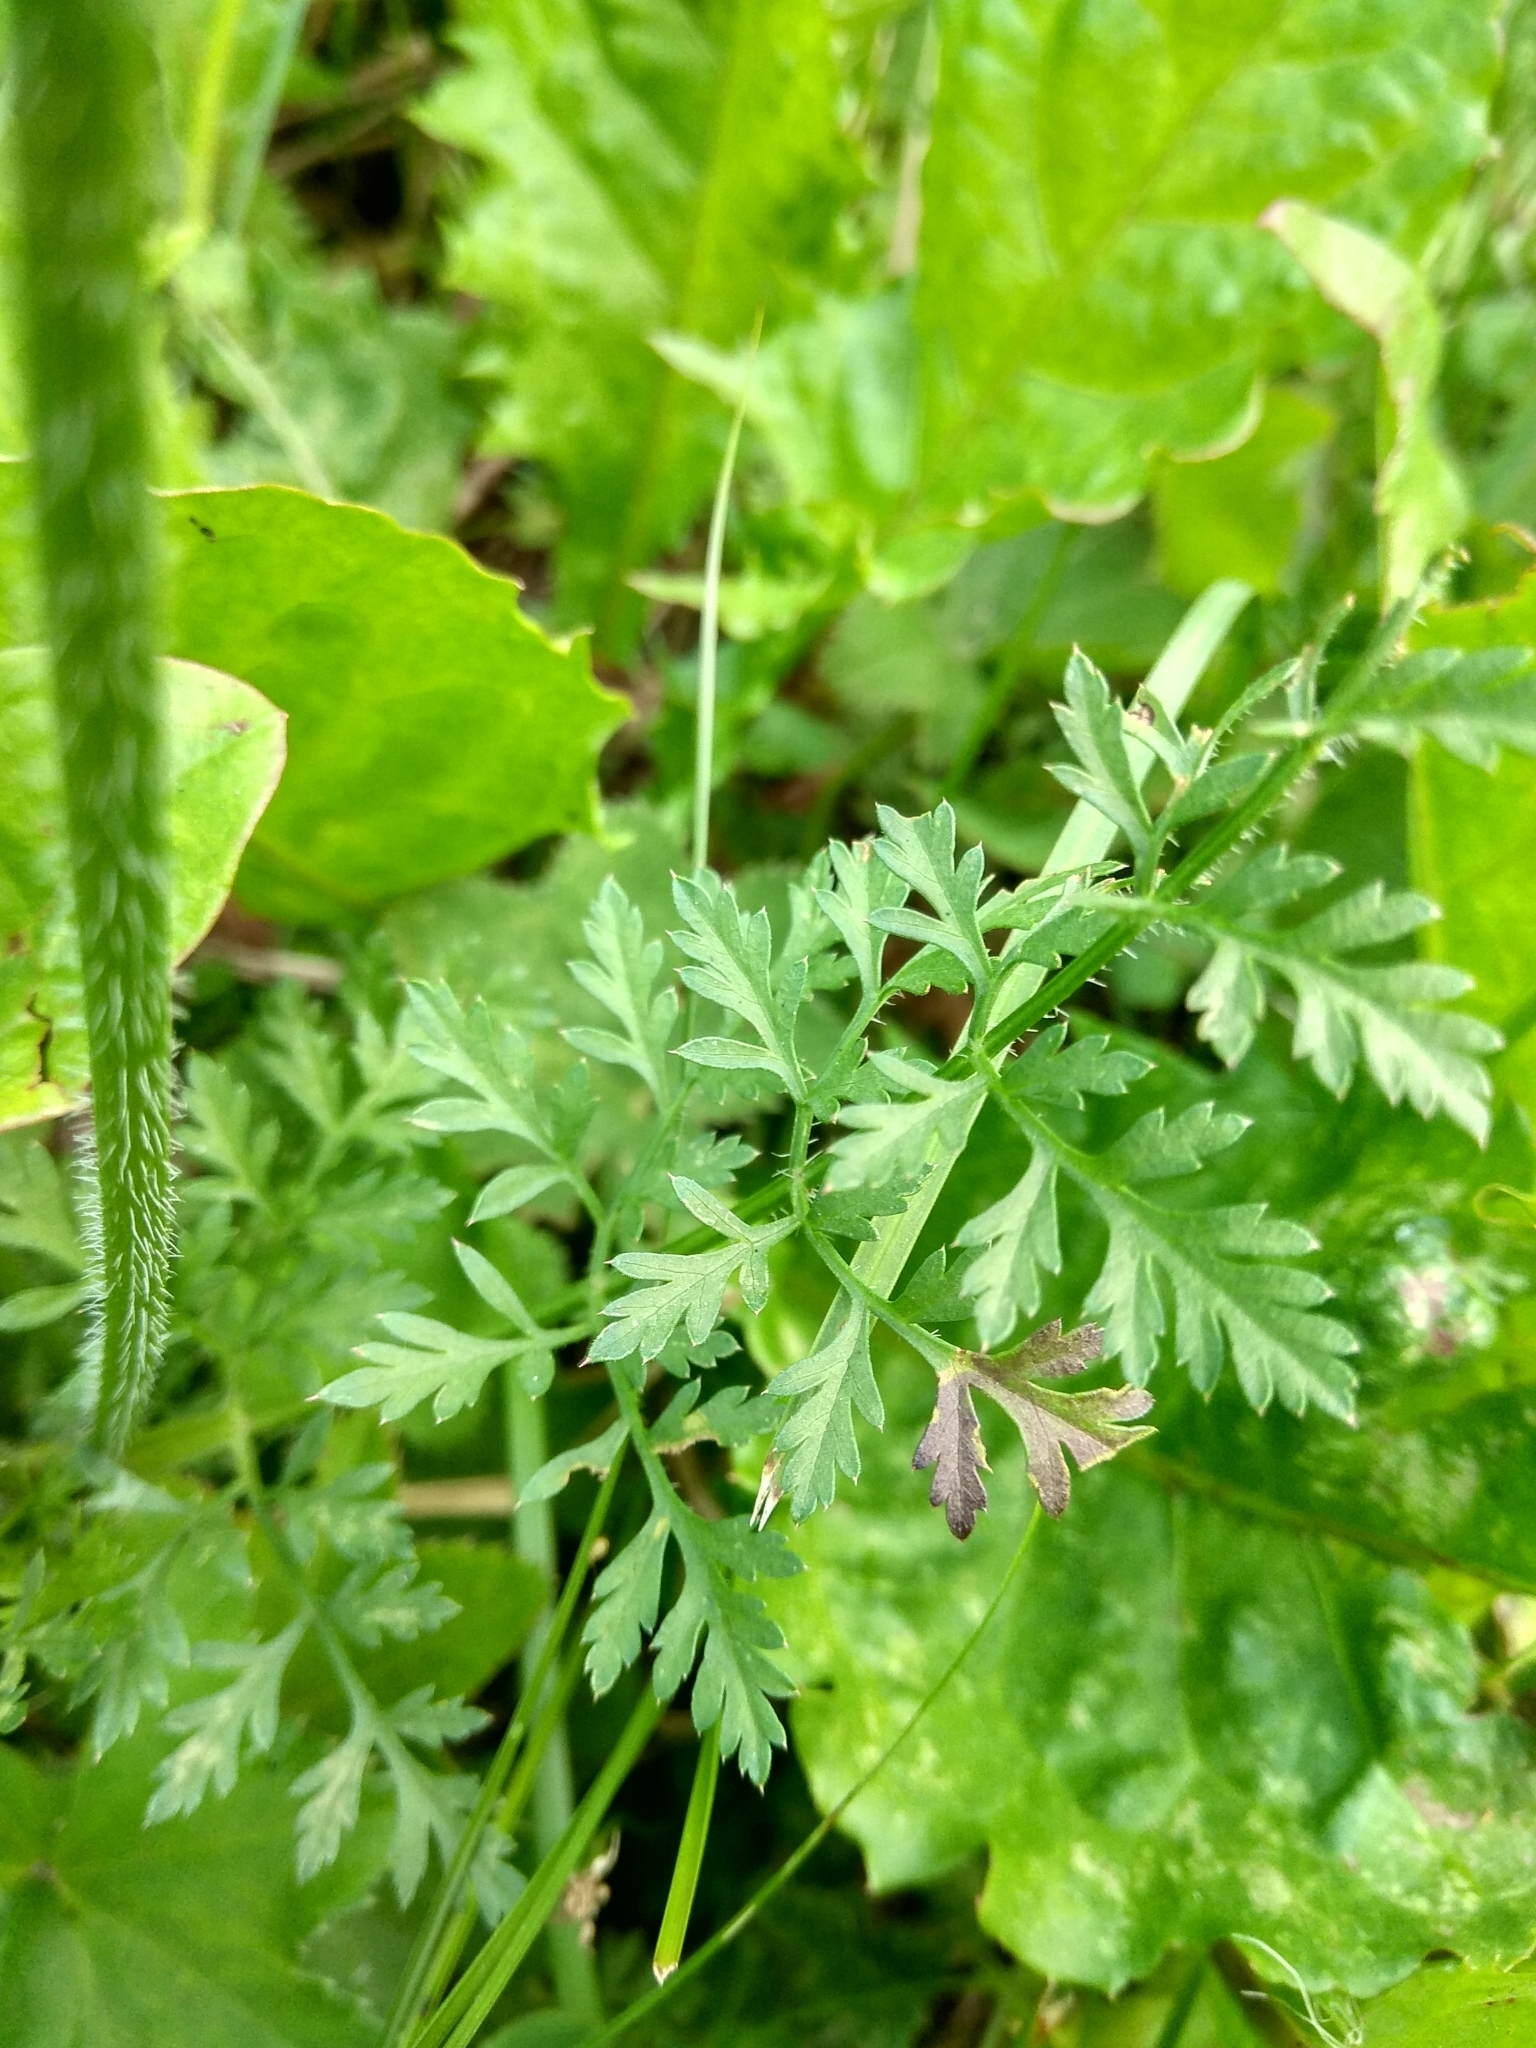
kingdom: Plantae
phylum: Tracheophyta
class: Magnoliopsida
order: Apiales
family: Apiaceae
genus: Daucus
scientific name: Daucus carota
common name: Wild carrot
